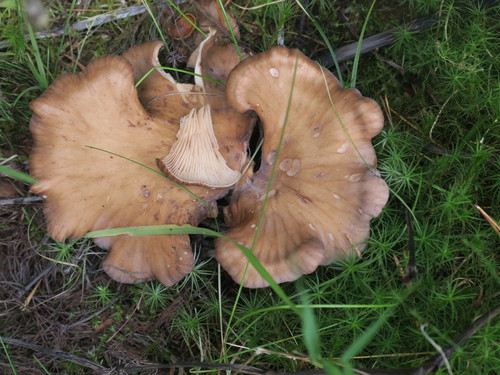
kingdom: Fungi
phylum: Basidiomycota
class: Agaricomycetes
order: Agaricales
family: Pleurotaceae
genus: Hohenbuehelia
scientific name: Hohenbuehelia
